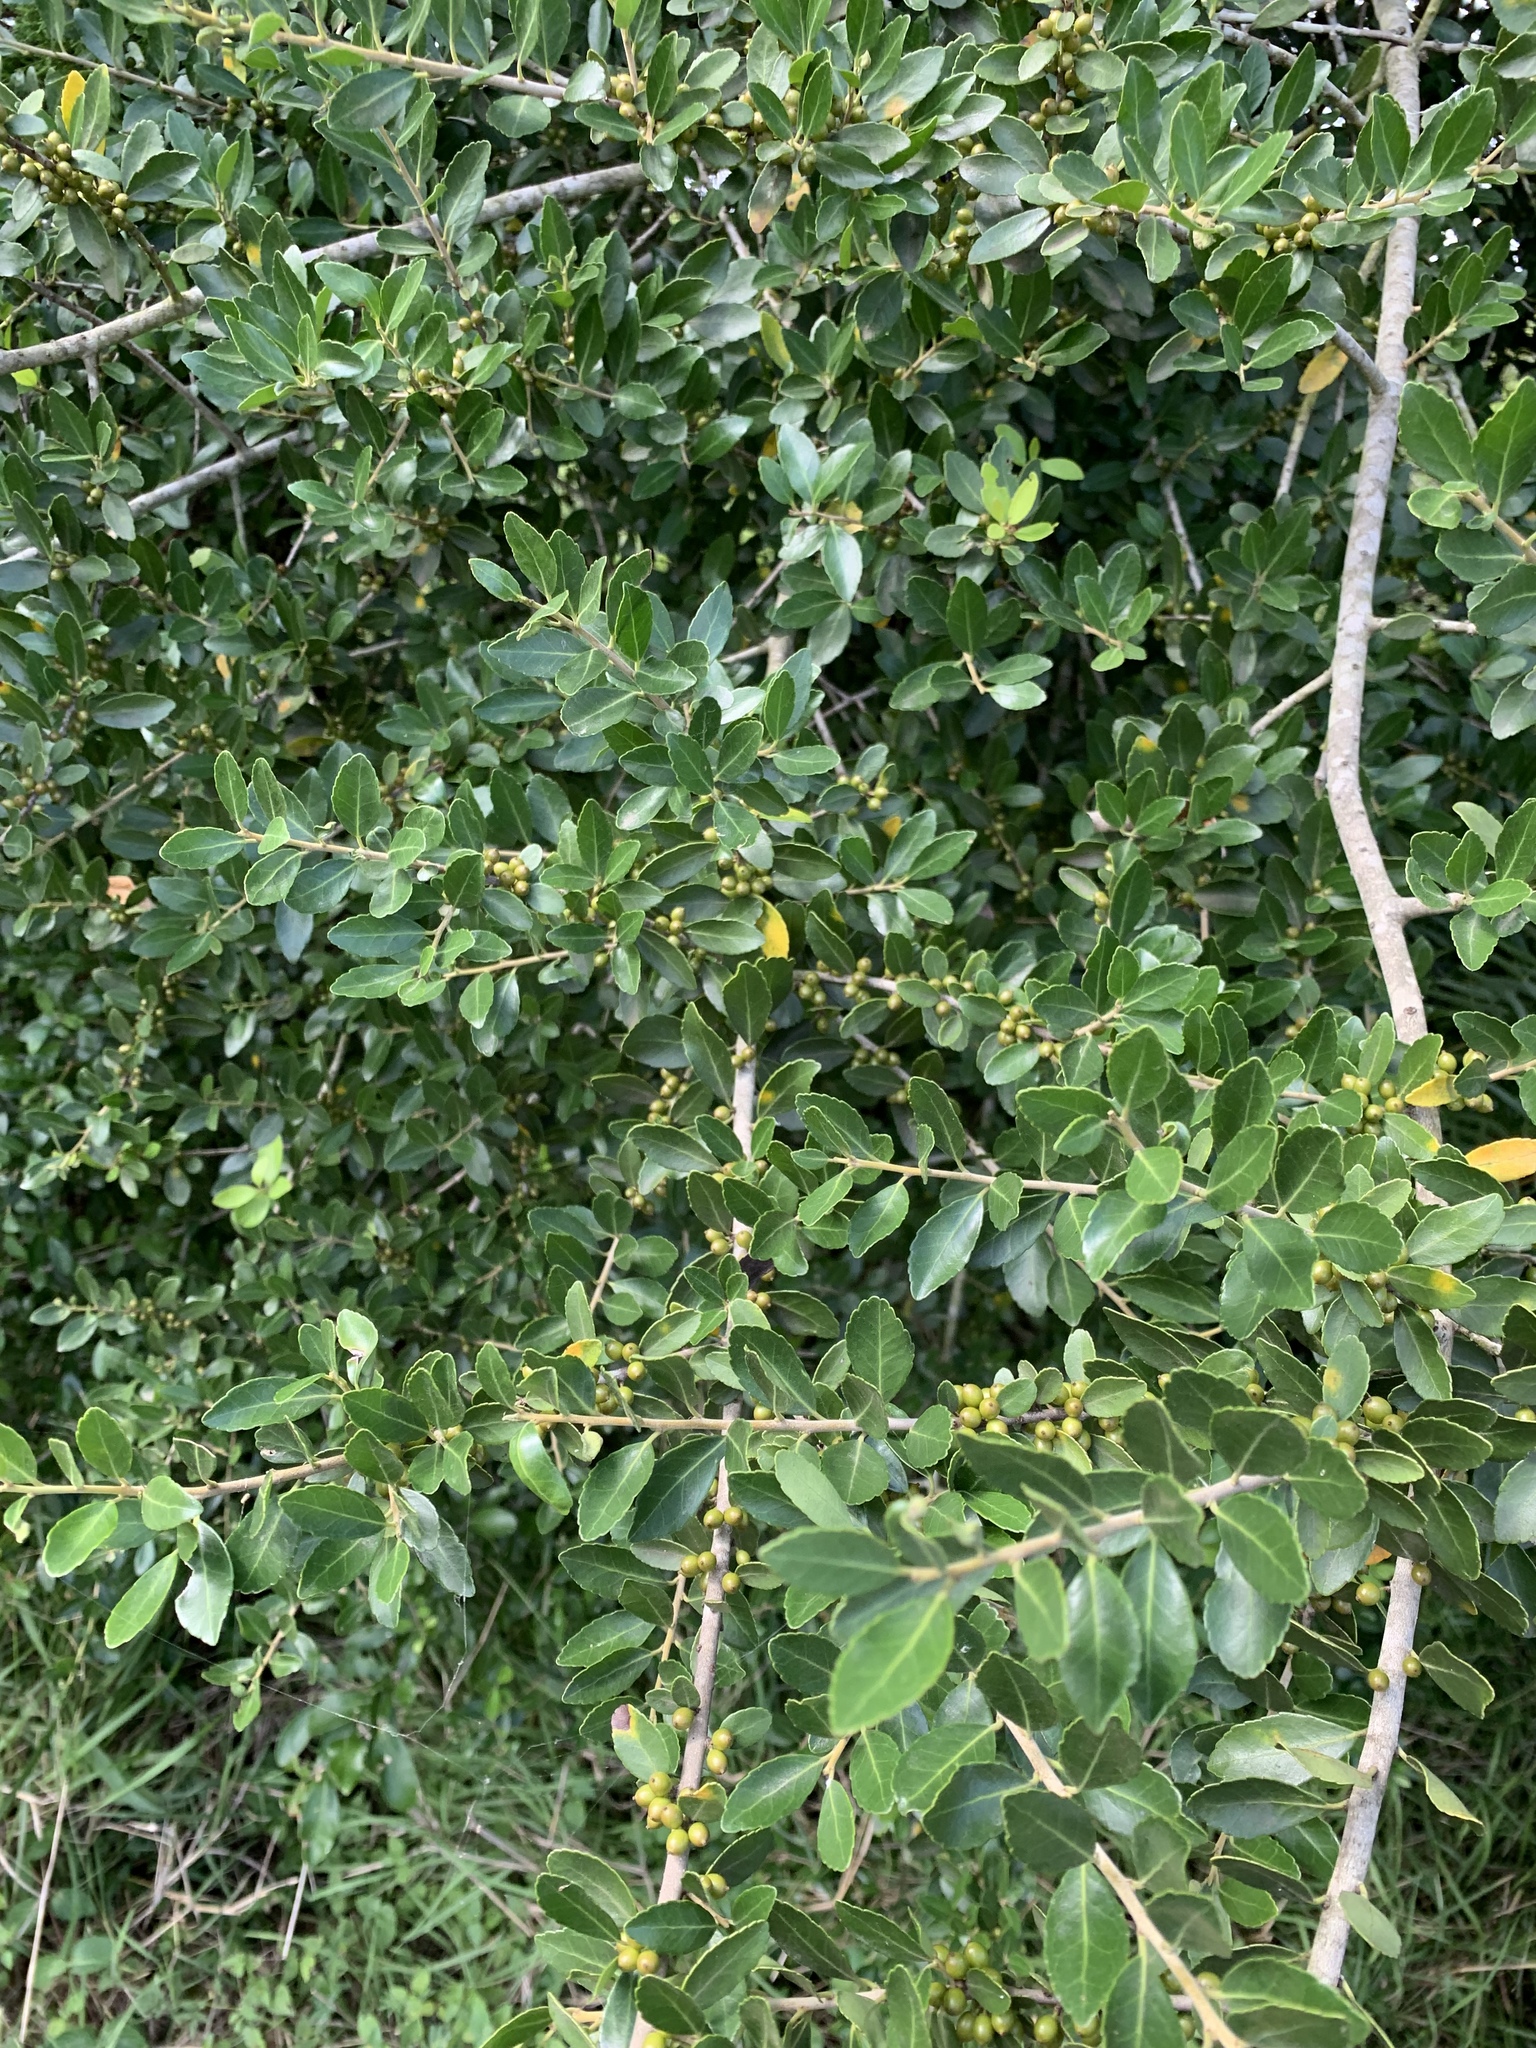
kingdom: Plantae
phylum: Tracheophyta
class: Magnoliopsida
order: Aquifoliales
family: Aquifoliaceae
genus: Ilex
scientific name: Ilex vomitoria
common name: Yaupon holly
